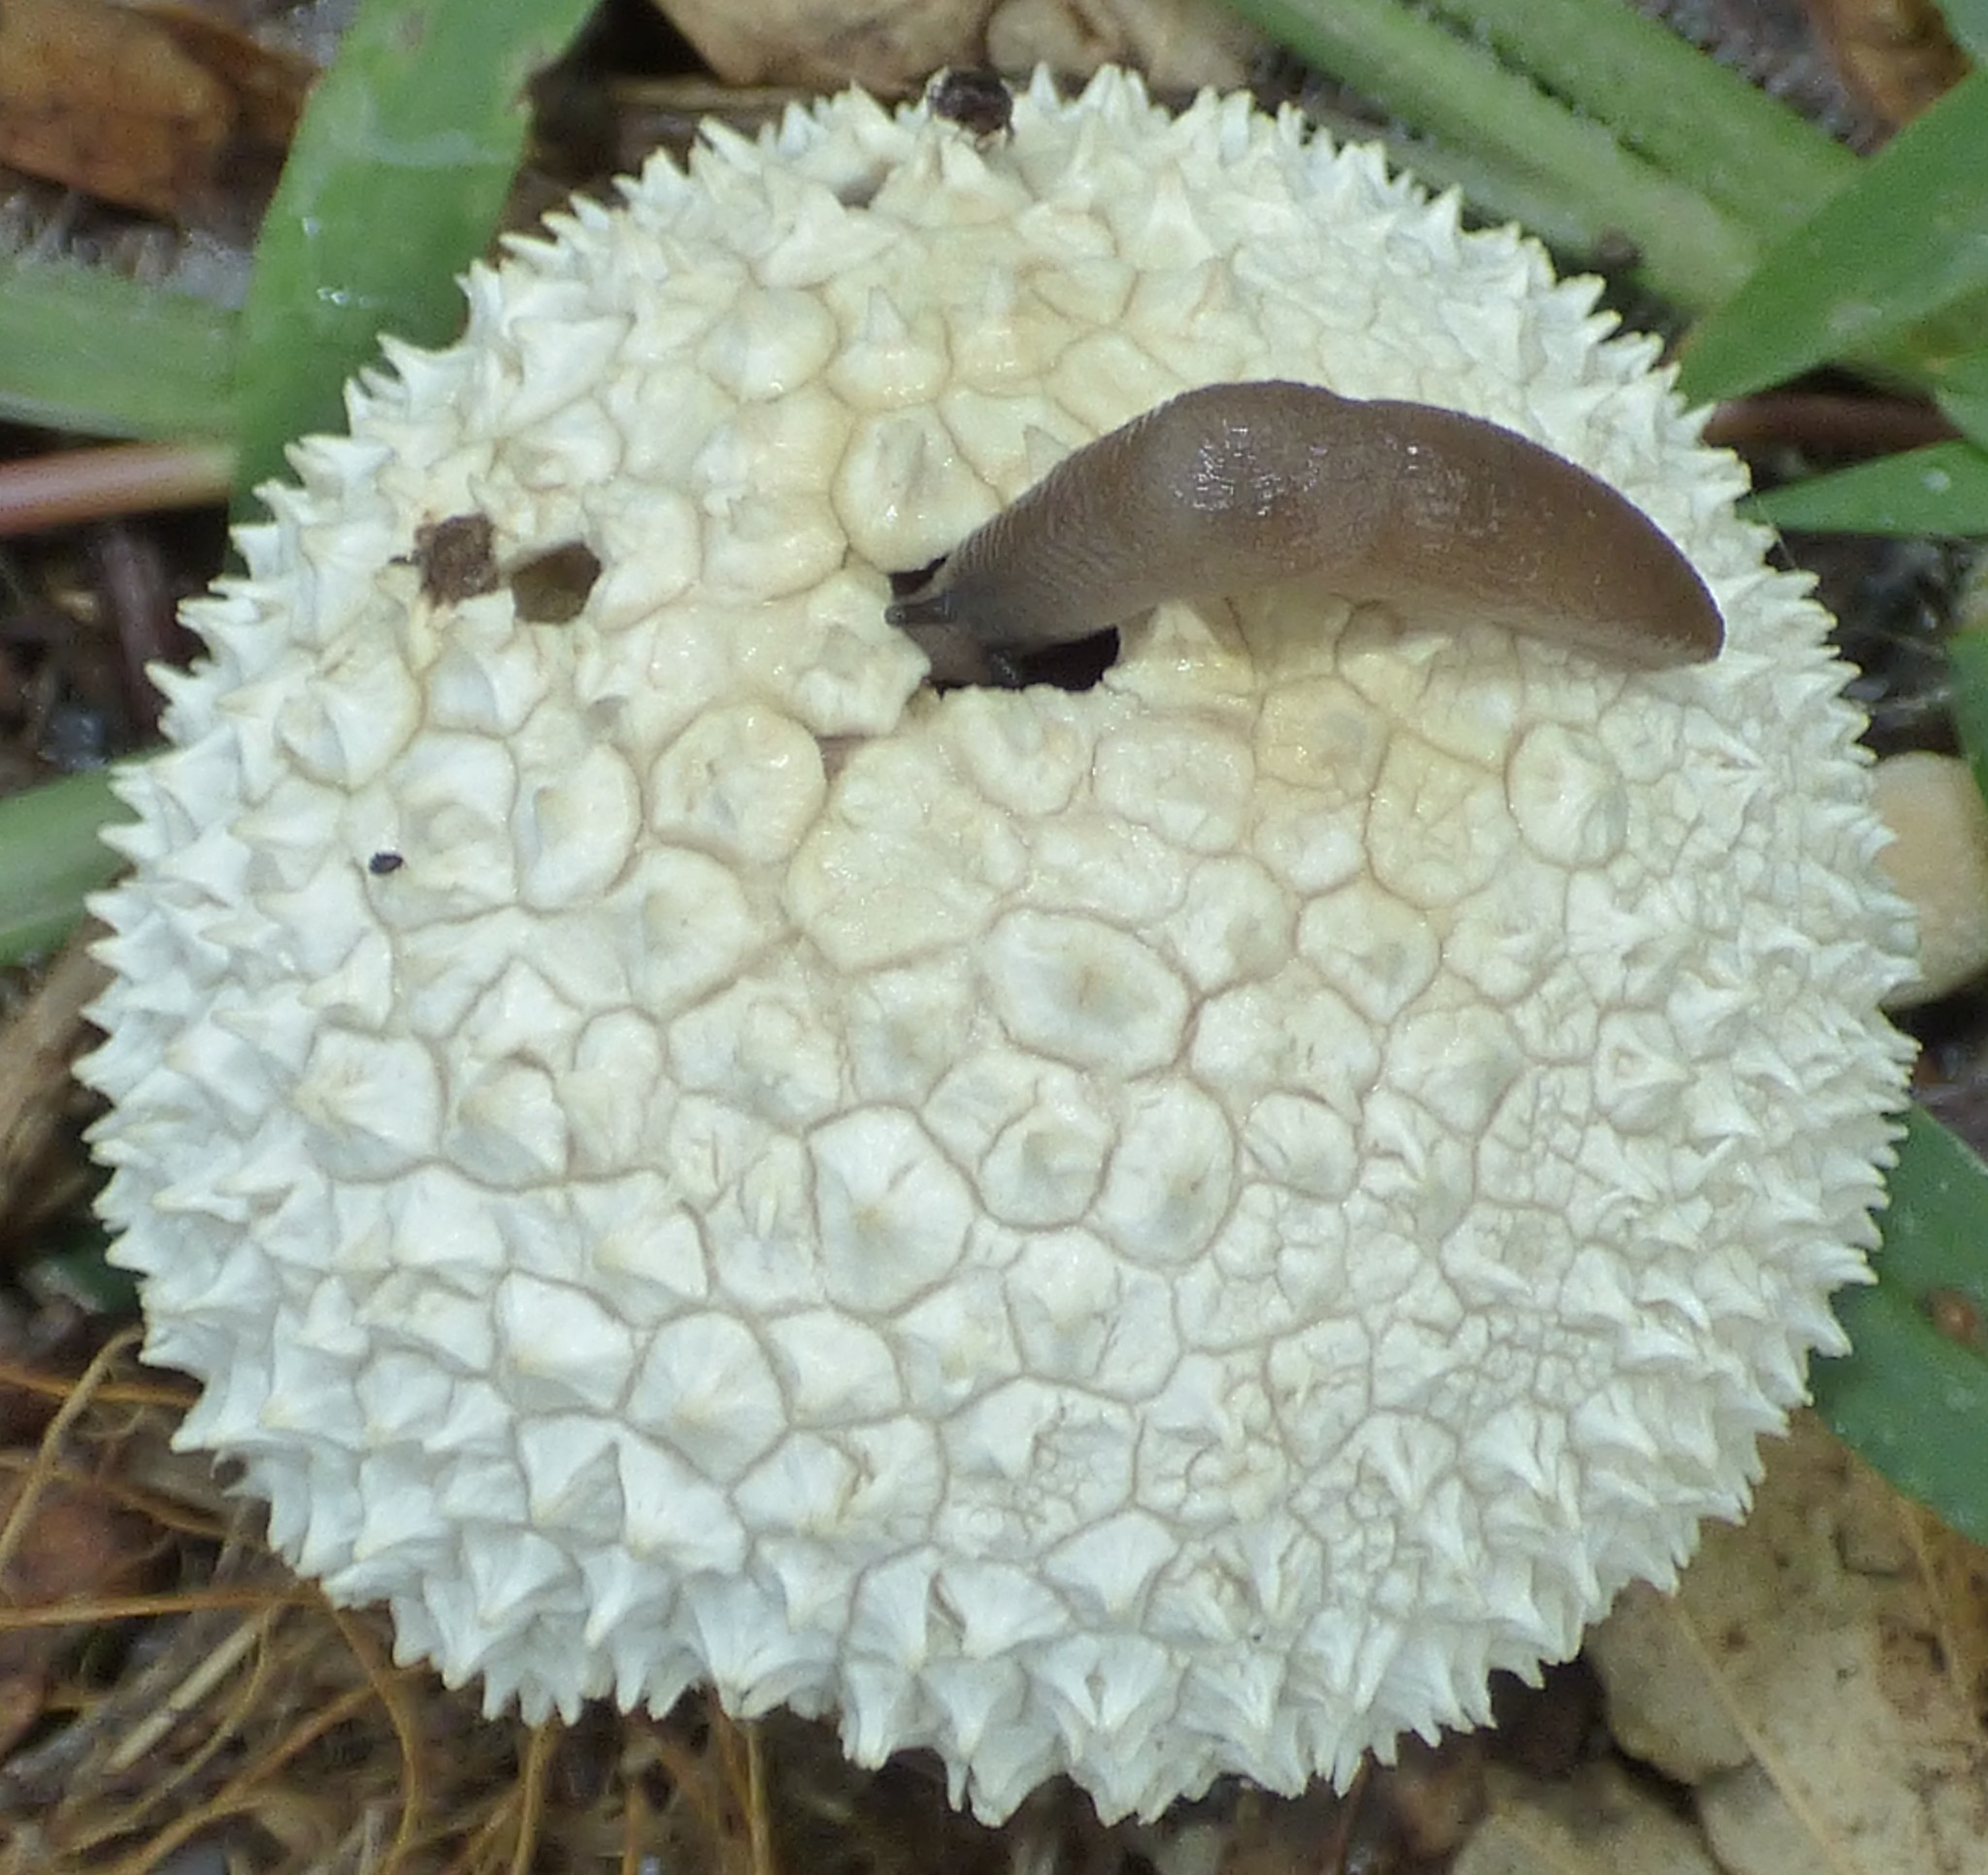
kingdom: Fungi
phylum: Basidiomycota
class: Agaricomycetes
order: Agaricales
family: Agaricaceae
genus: Lycoperdon
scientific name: Lycoperdon marginatum
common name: Peeling puffball
